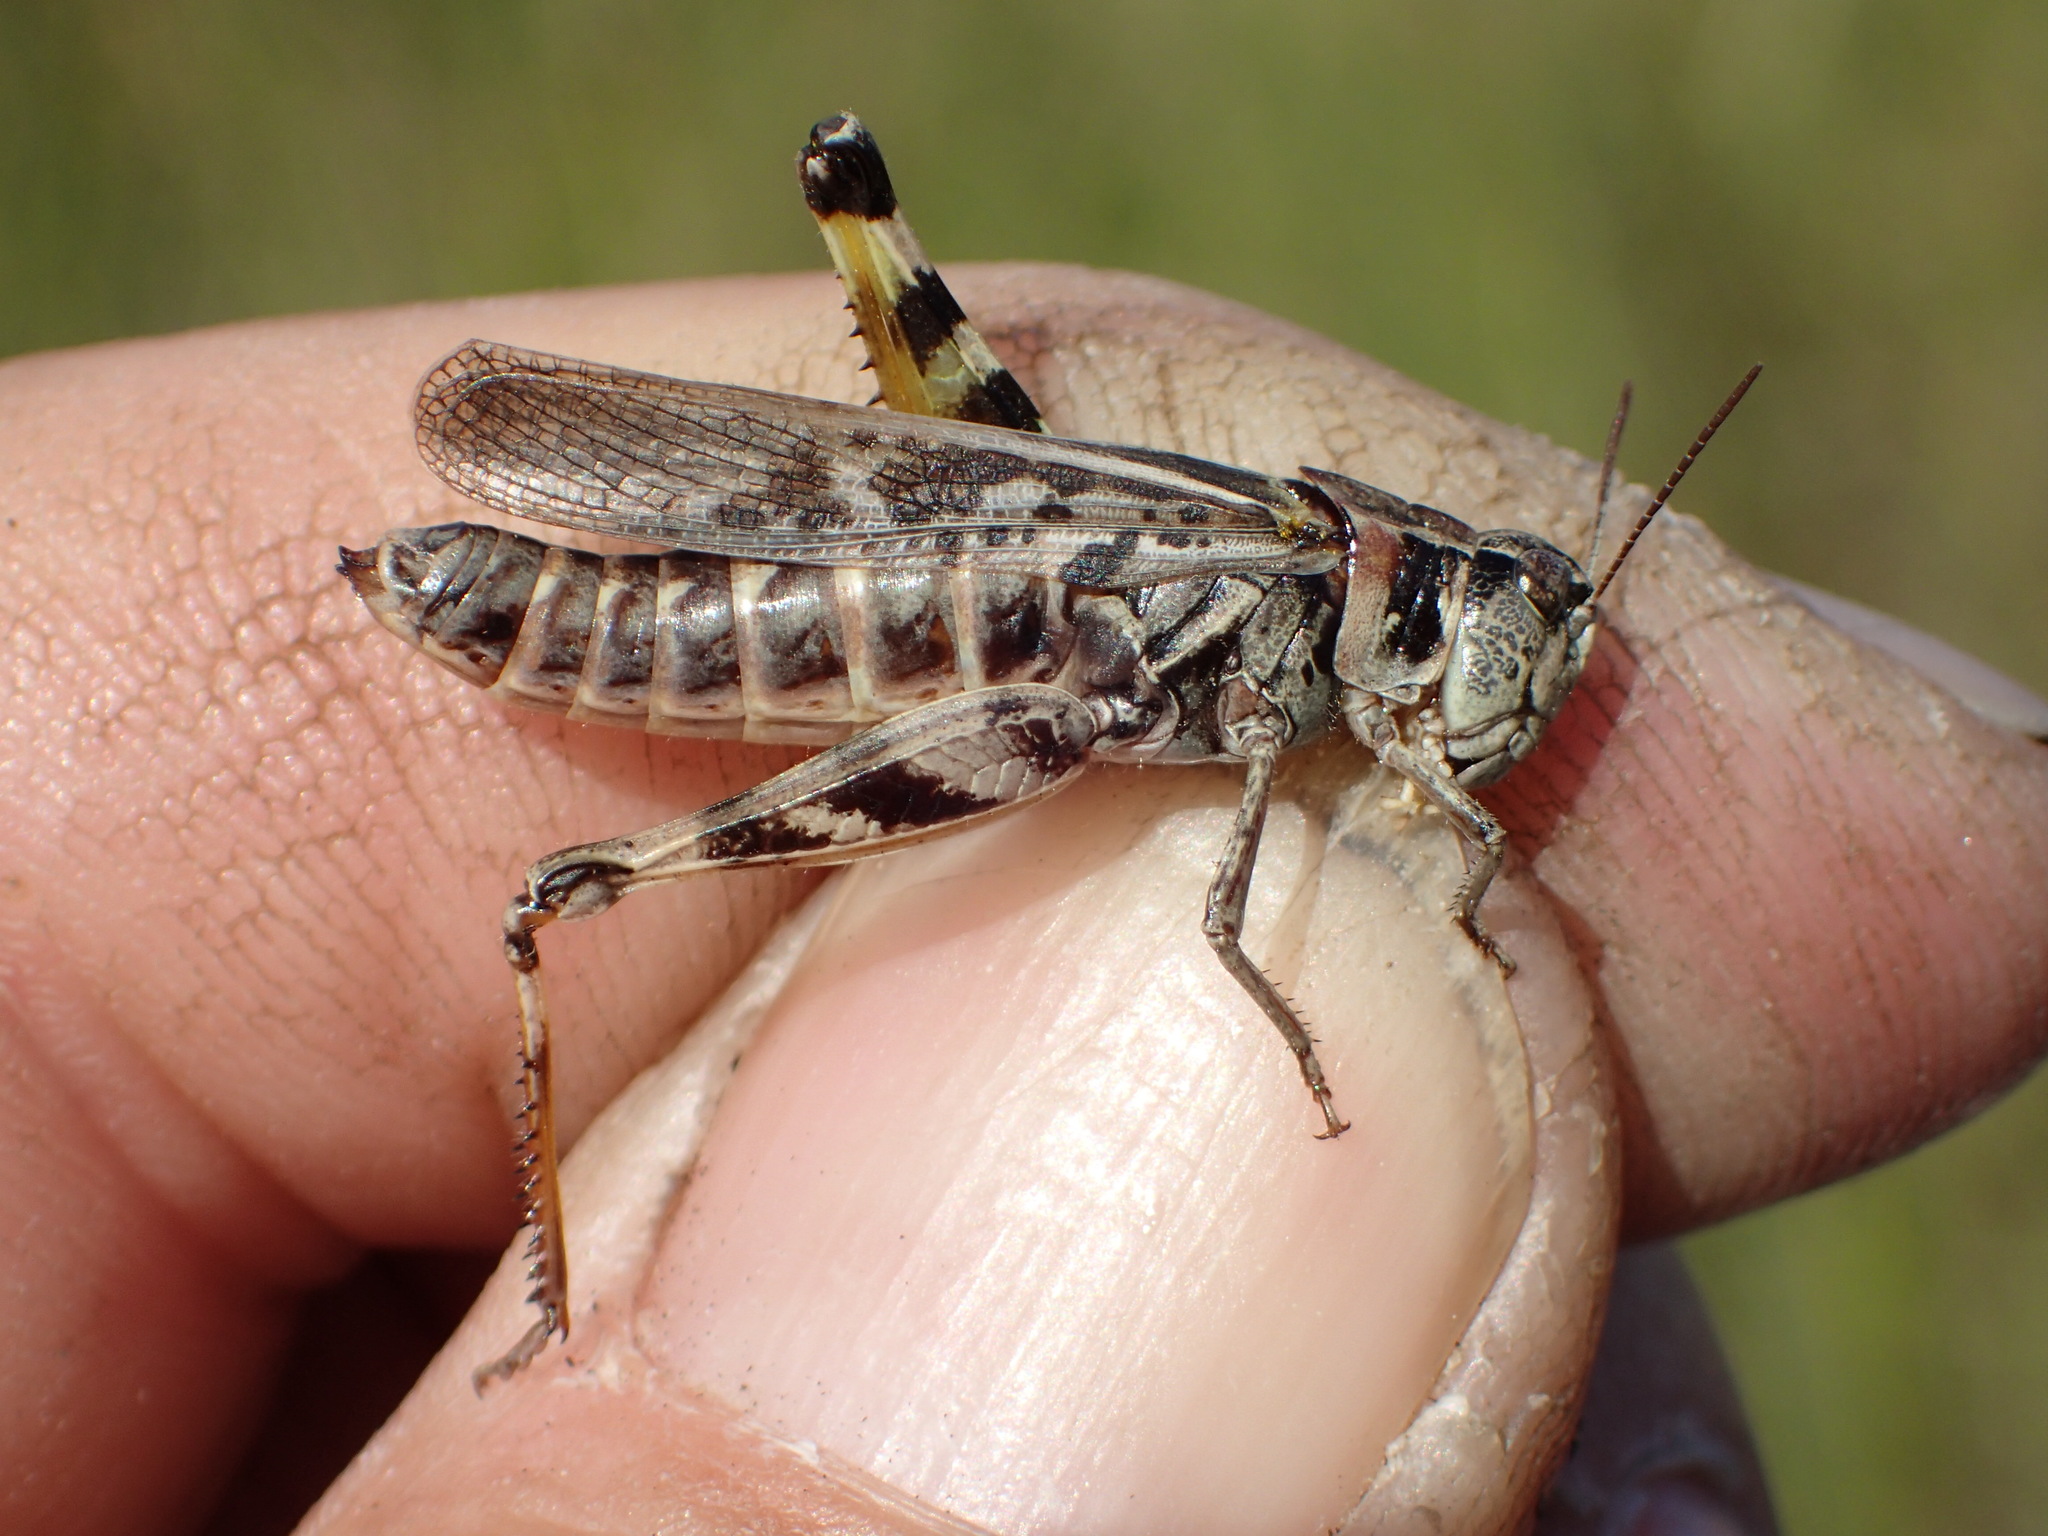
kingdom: Animalia
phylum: Arthropoda
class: Insecta
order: Orthoptera
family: Acrididae
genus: Camnula
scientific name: Camnula pellucida
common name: Clear-winged grasshopper
